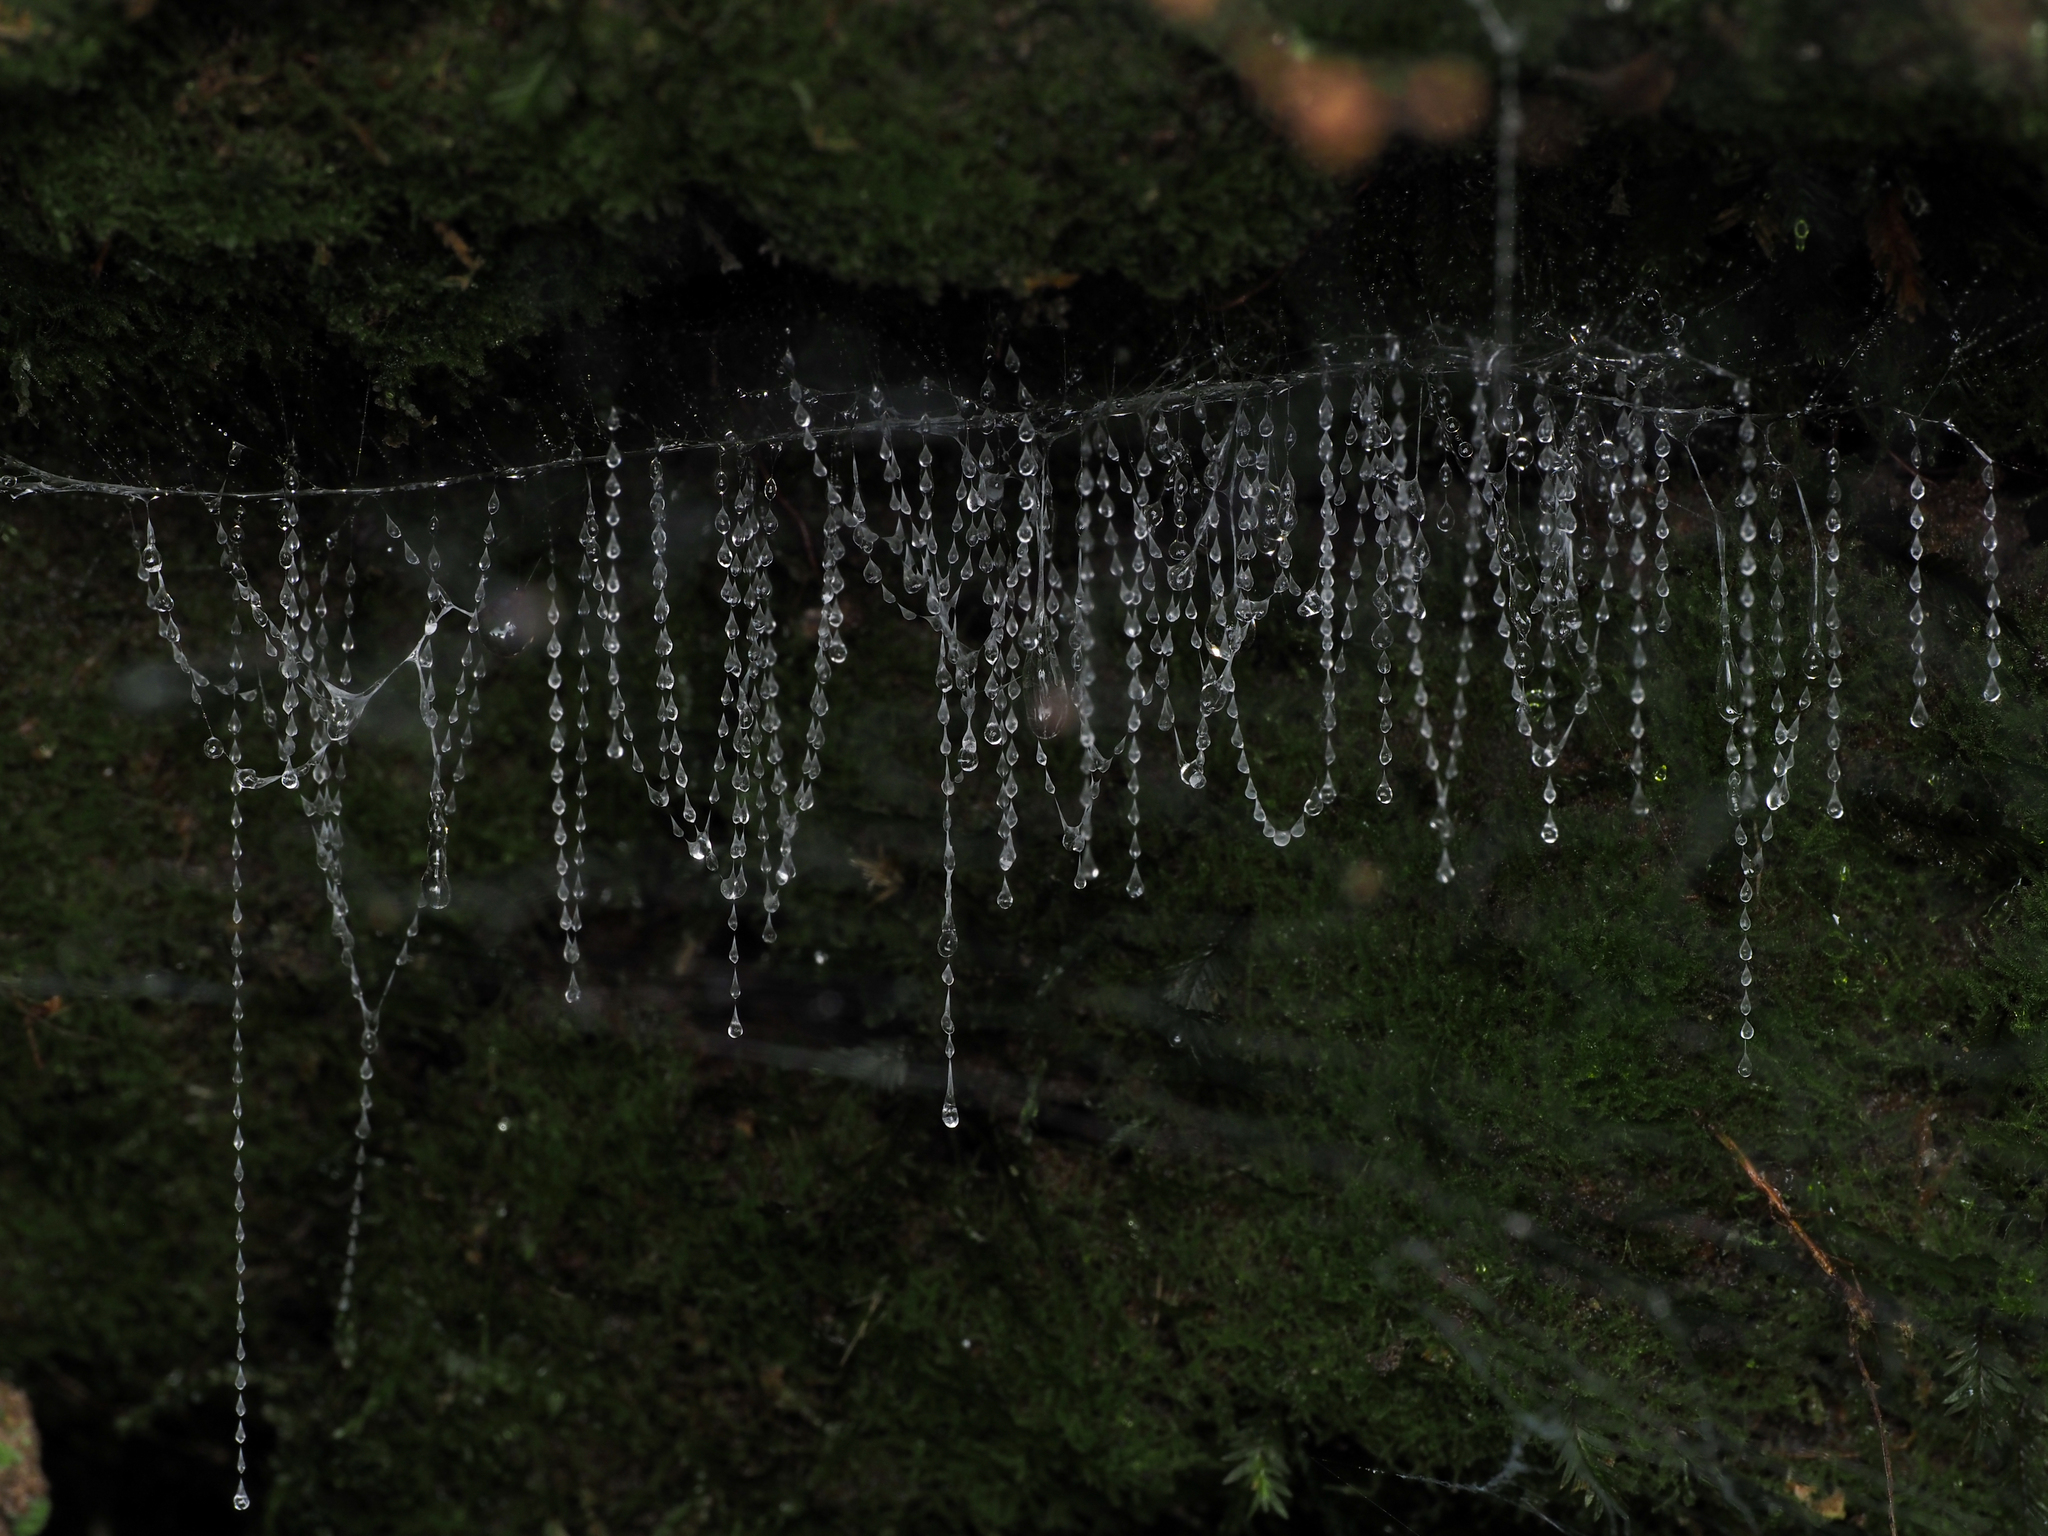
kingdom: Animalia
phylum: Arthropoda
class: Insecta
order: Diptera
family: Keroplatidae
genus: Arachnocampa
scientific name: Arachnocampa luminosa
